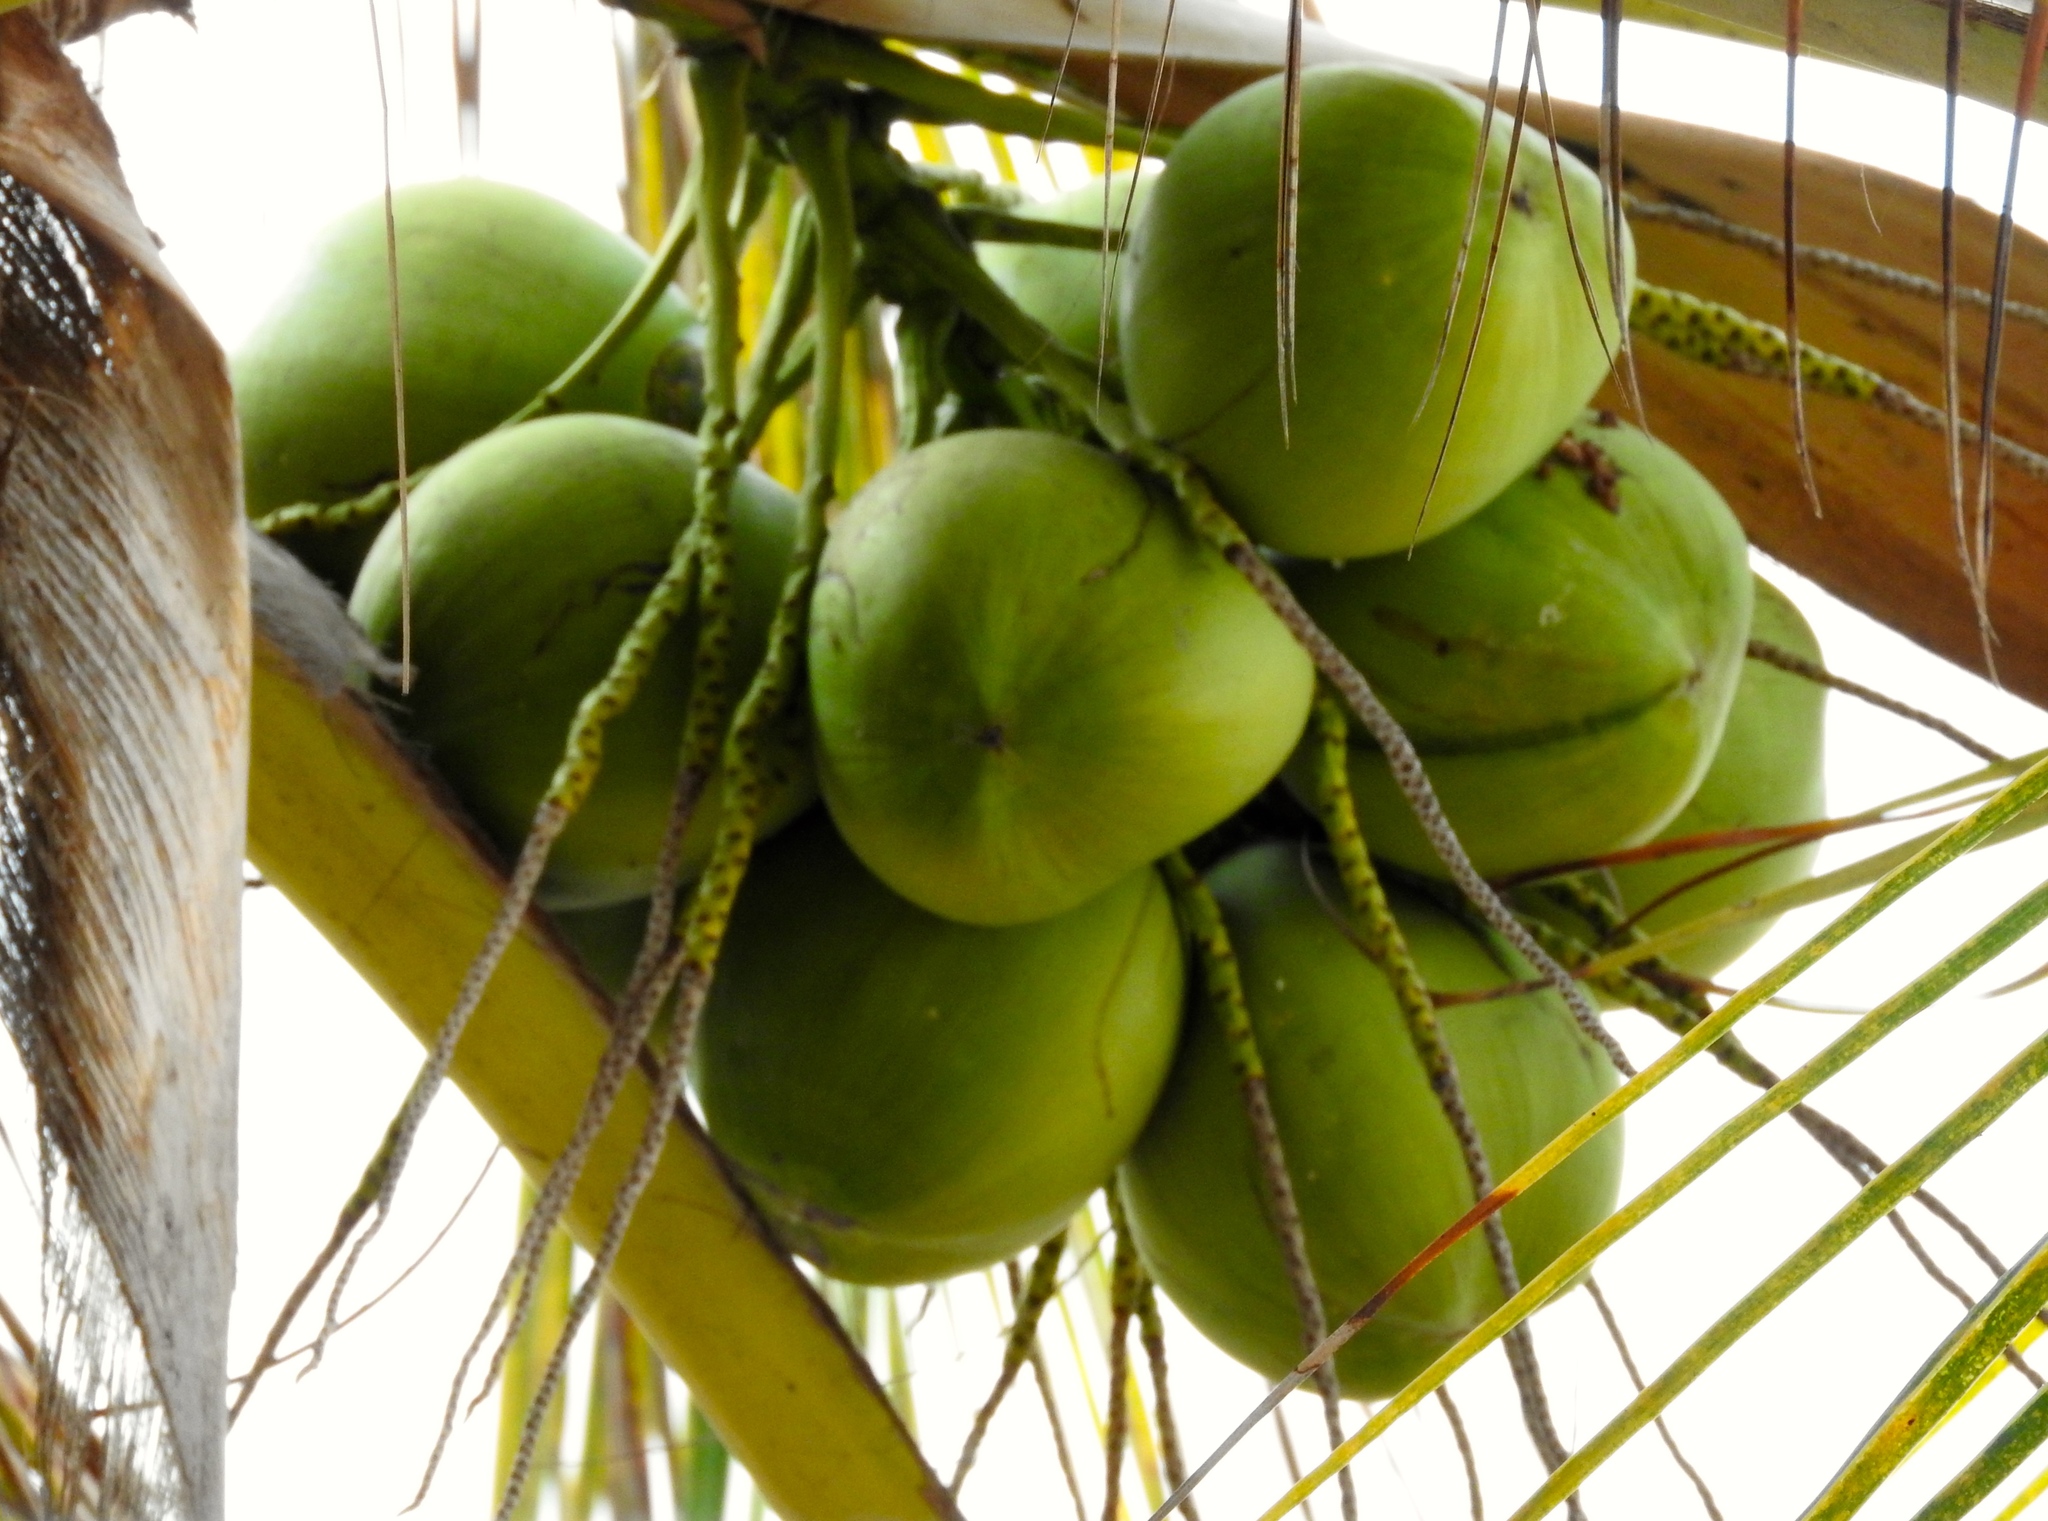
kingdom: Plantae
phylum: Tracheophyta
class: Liliopsida
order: Arecales
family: Arecaceae
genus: Cocos
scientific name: Cocos nucifera
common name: Coconut palm
